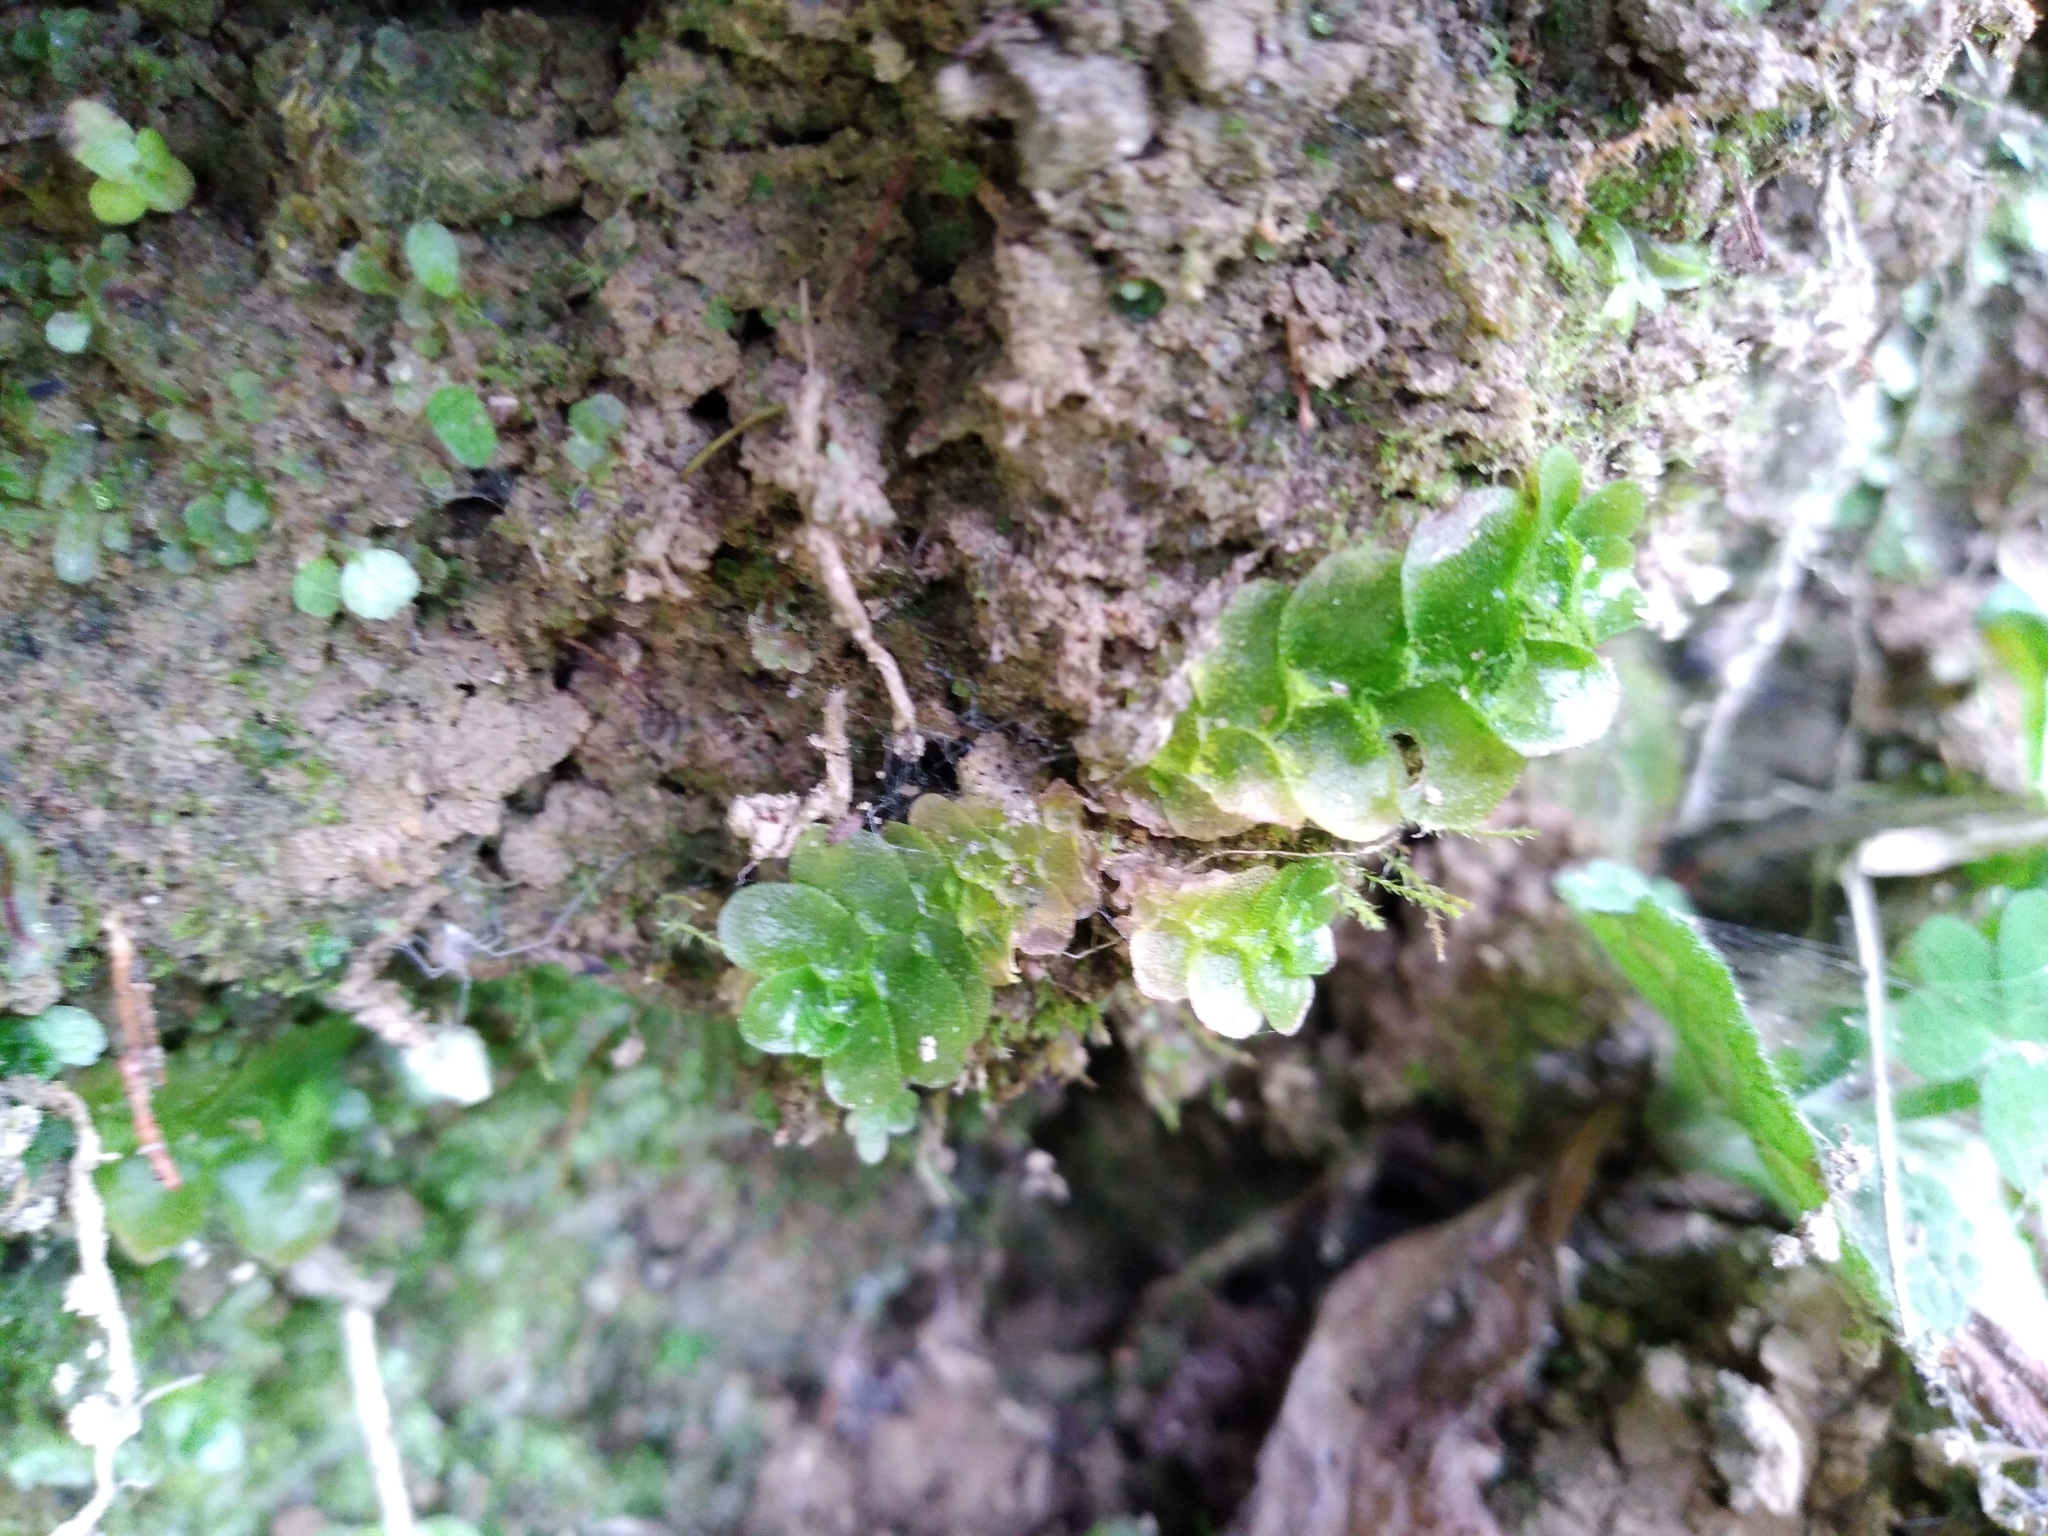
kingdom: Plantae
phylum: Marchantiophyta
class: Haplomitriopsida
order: Treubiales
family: Treubiaceae
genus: Treubia
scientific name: Treubia lacunosa
